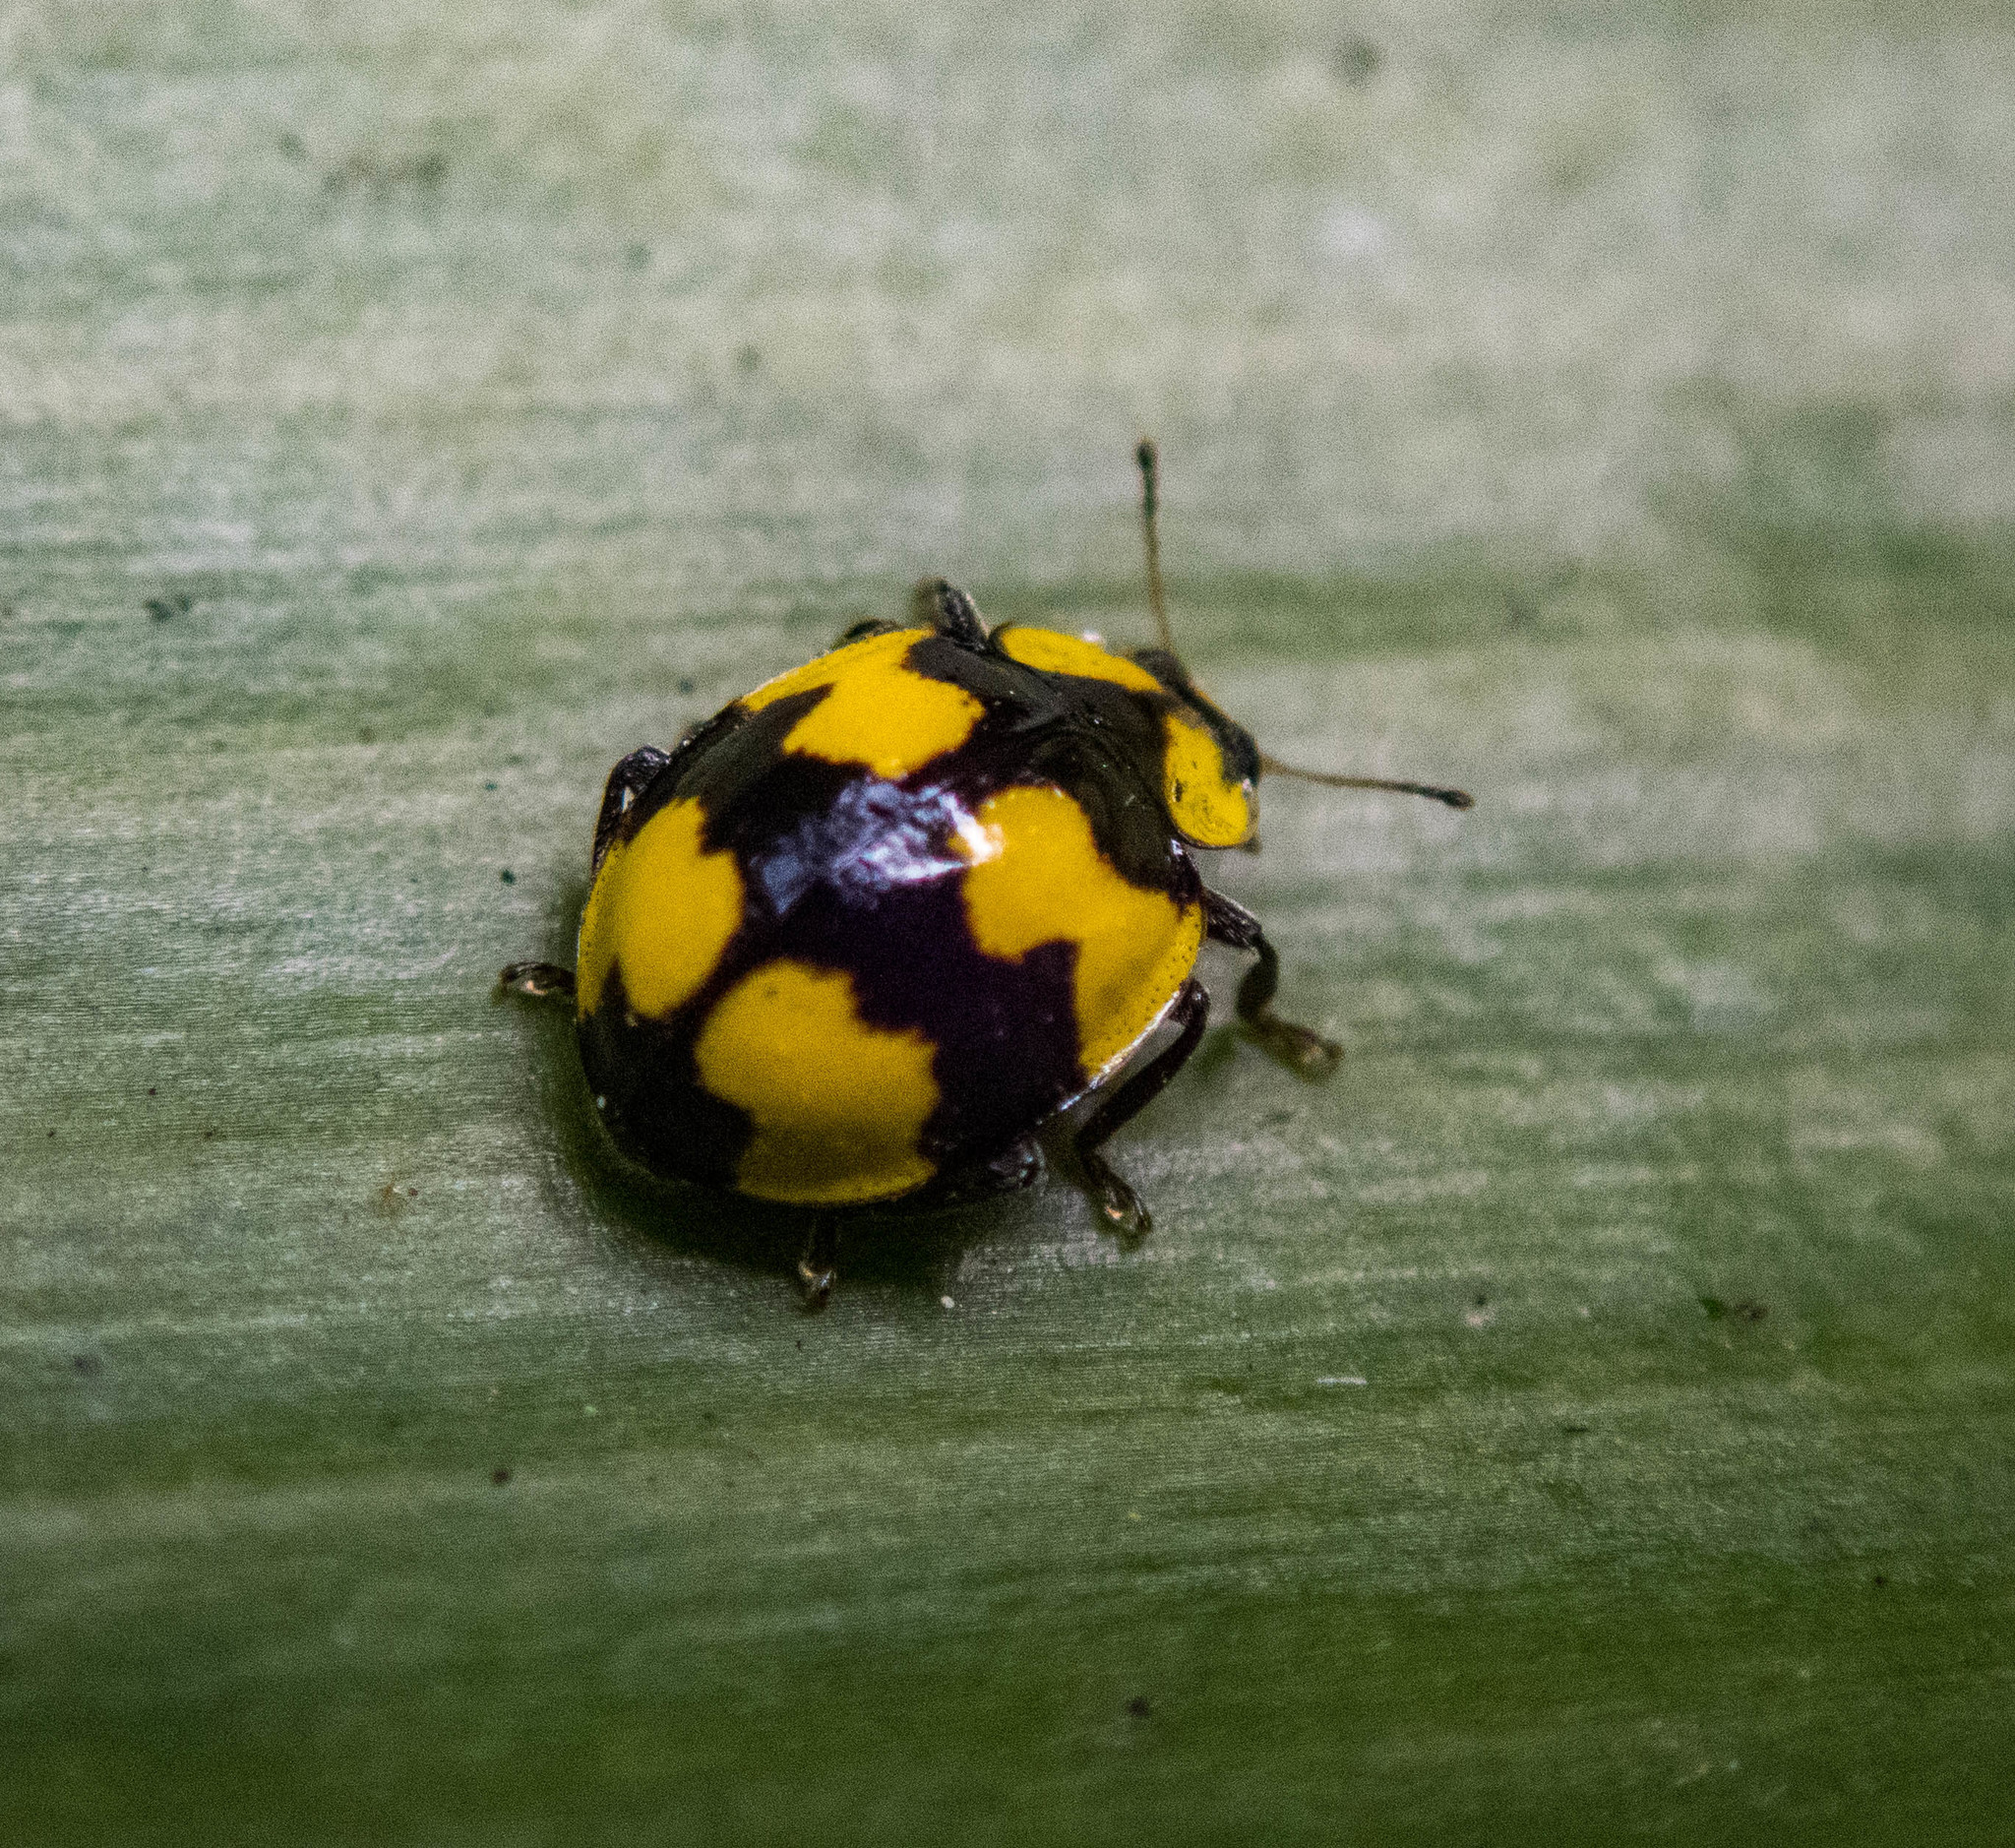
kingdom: Animalia
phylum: Arthropoda
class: Insecta
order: Coleoptera
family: Coccinellidae
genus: Illeis
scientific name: Illeis galbula
